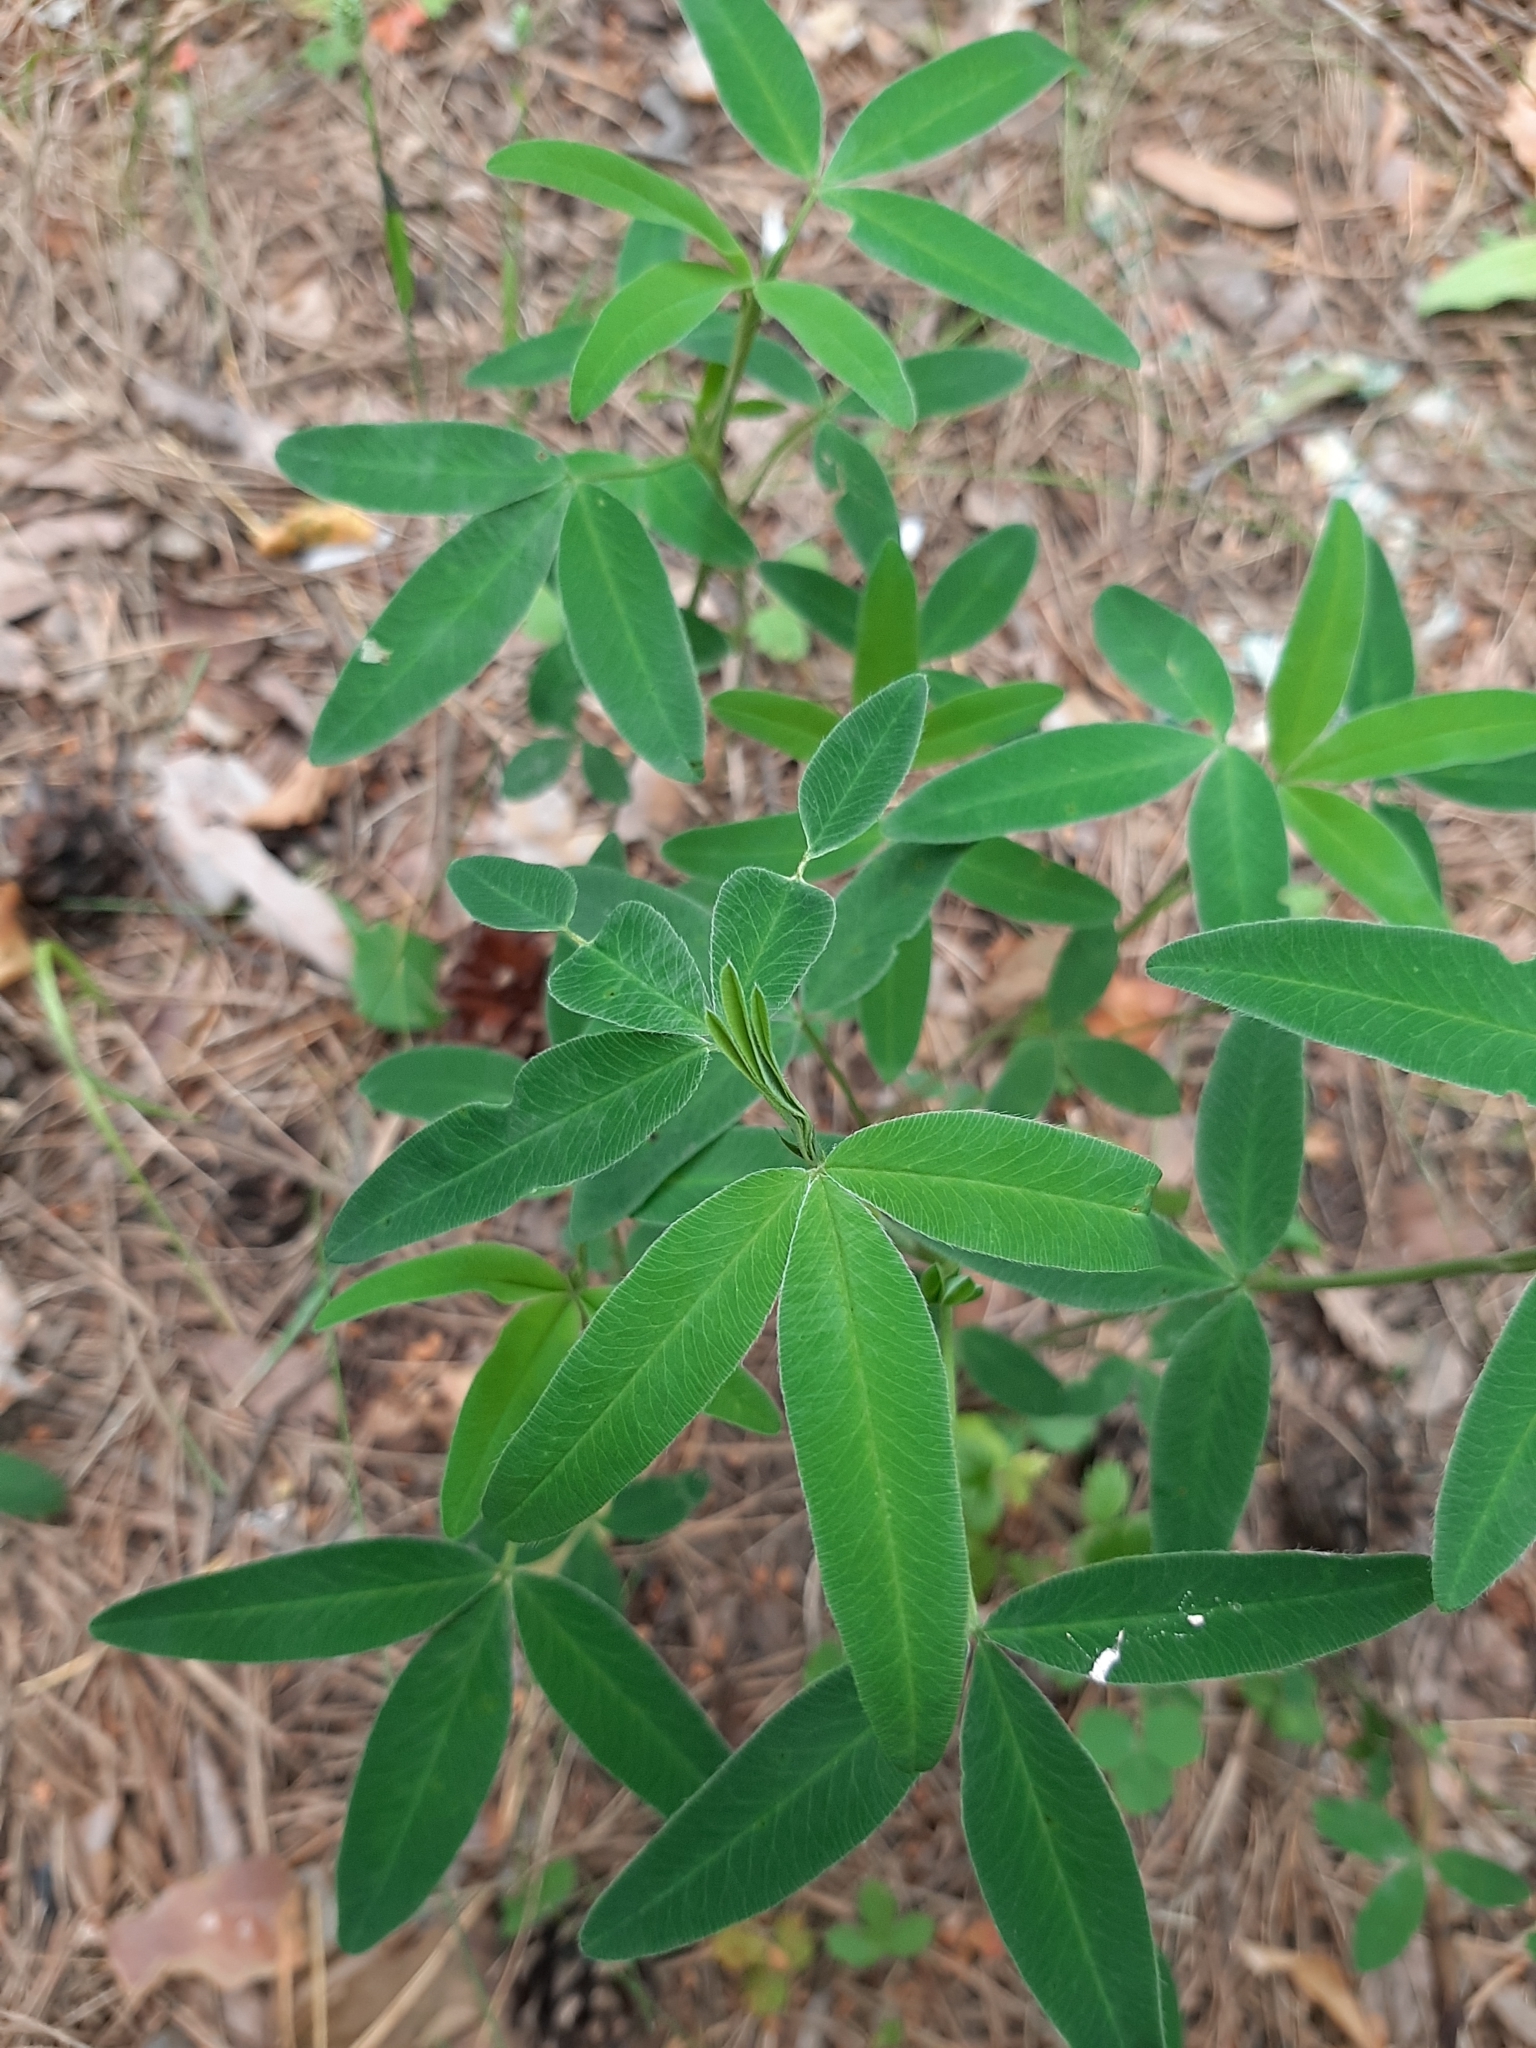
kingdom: Plantae
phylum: Tracheophyta
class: Magnoliopsida
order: Fabales
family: Fabaceae
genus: Trifolium
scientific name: Trifolium medium
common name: Zigzag clover
